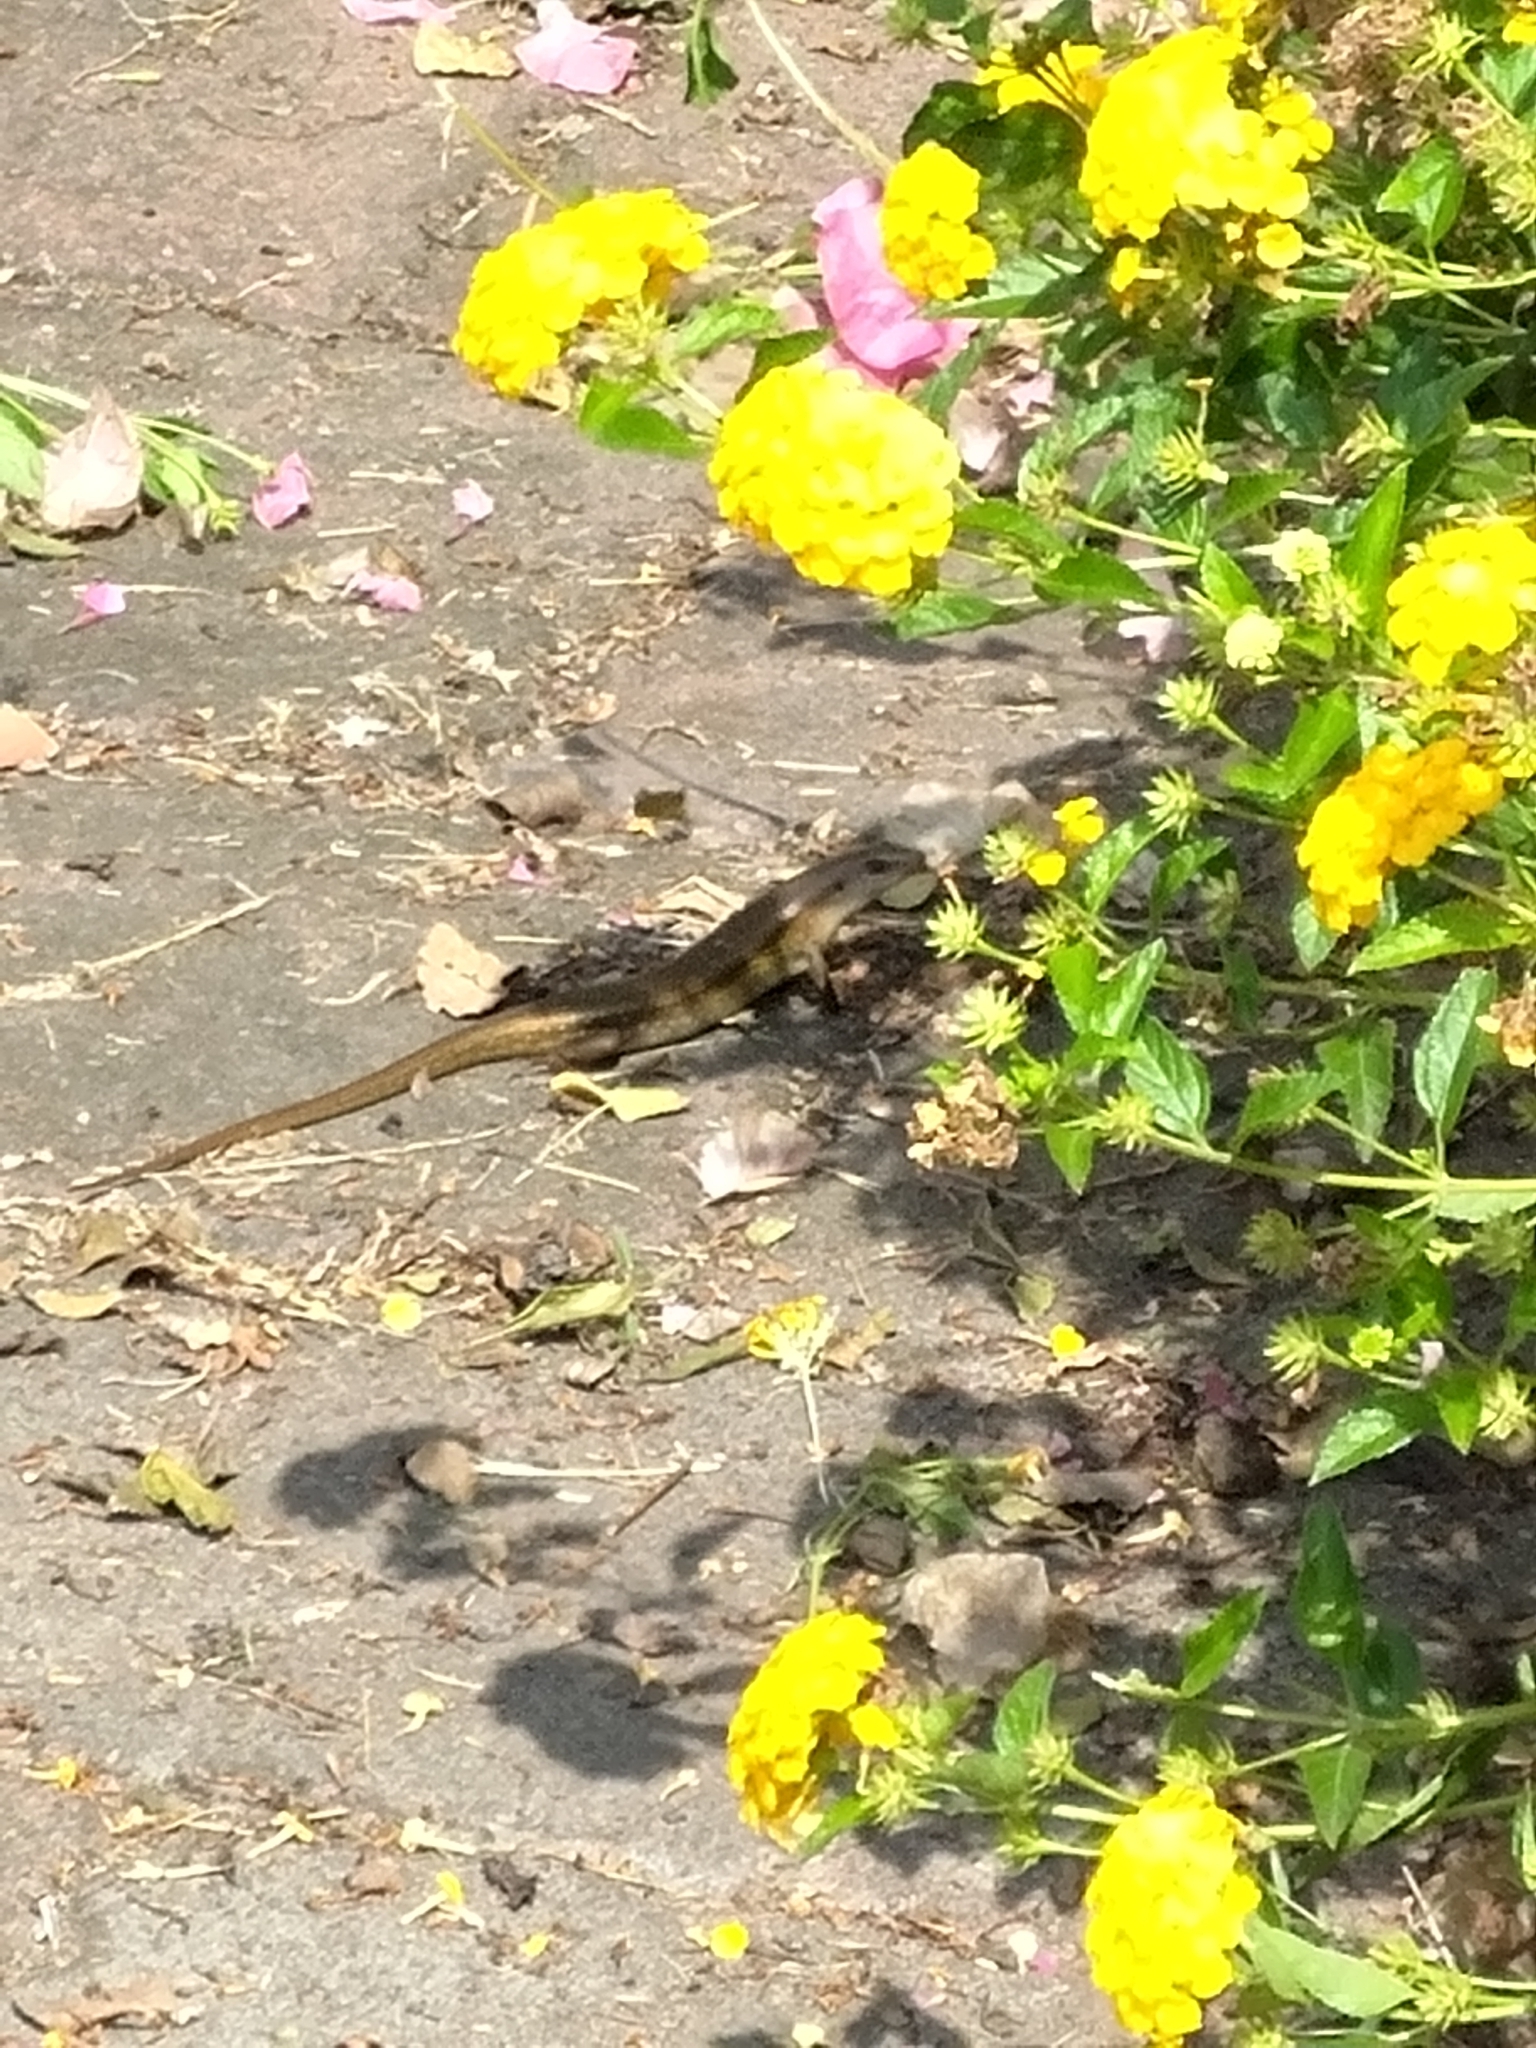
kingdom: Animalia
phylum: Chordata
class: Squamata
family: Scincidae
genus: Eutropis
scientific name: Eutropis multifasciata
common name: Common mabuya
